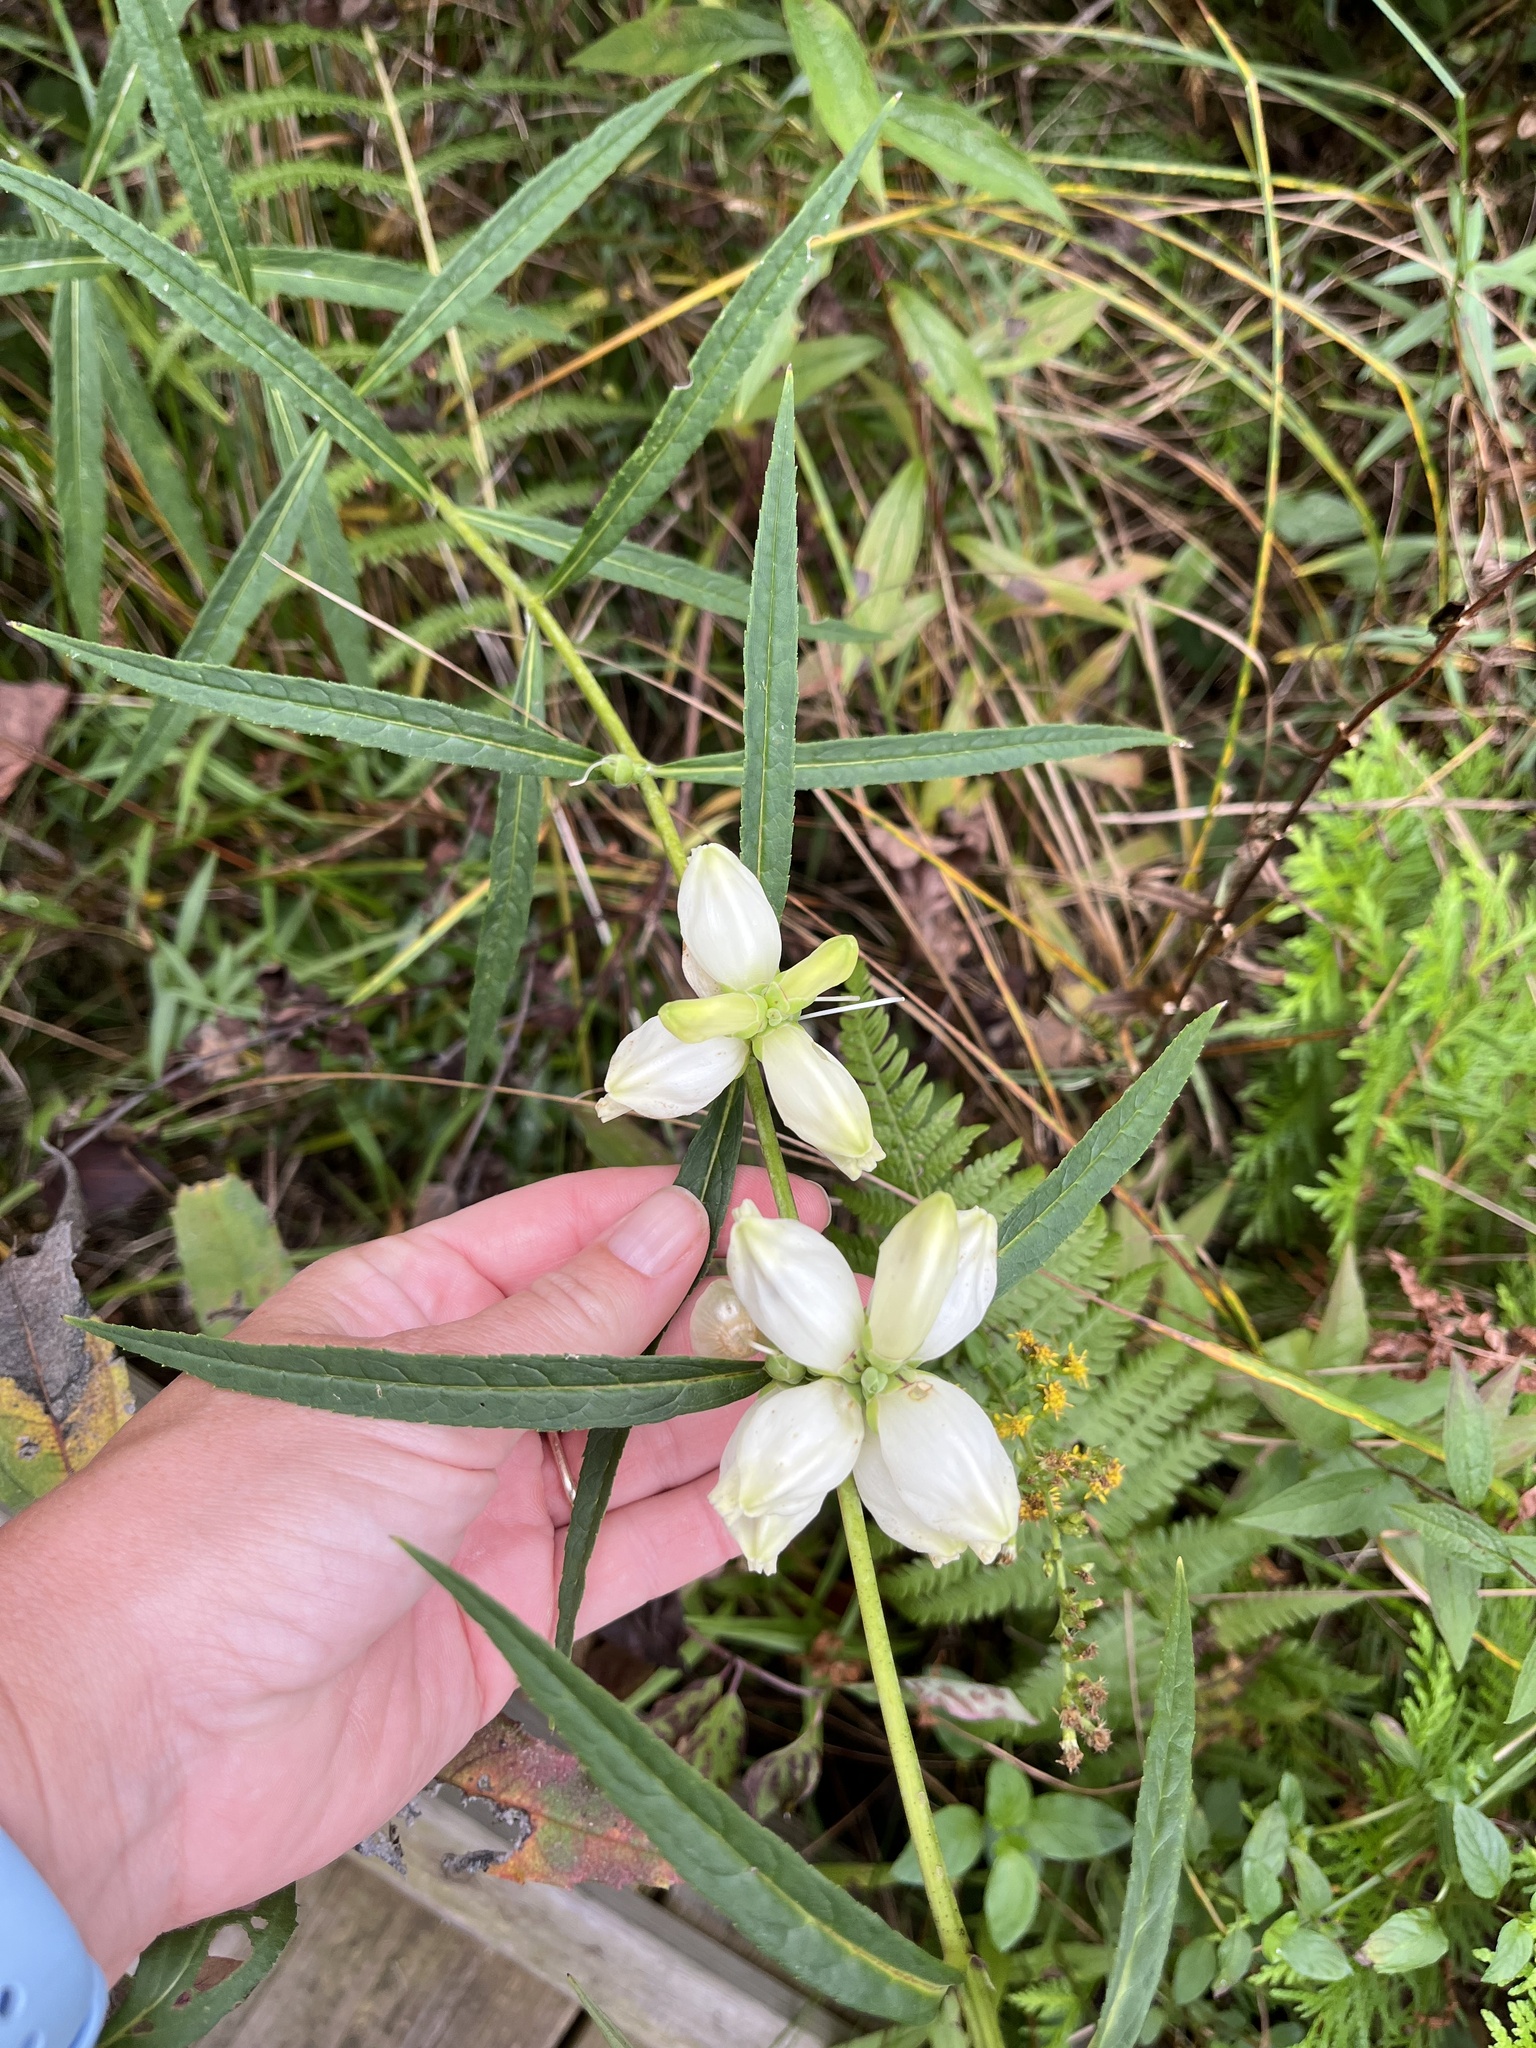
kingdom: Plantae
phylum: Tracheophyta
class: Magnoliopsida
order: Lamiales
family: Plantaginaceae
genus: Chelone
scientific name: Chelone glabra
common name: Snakehead
